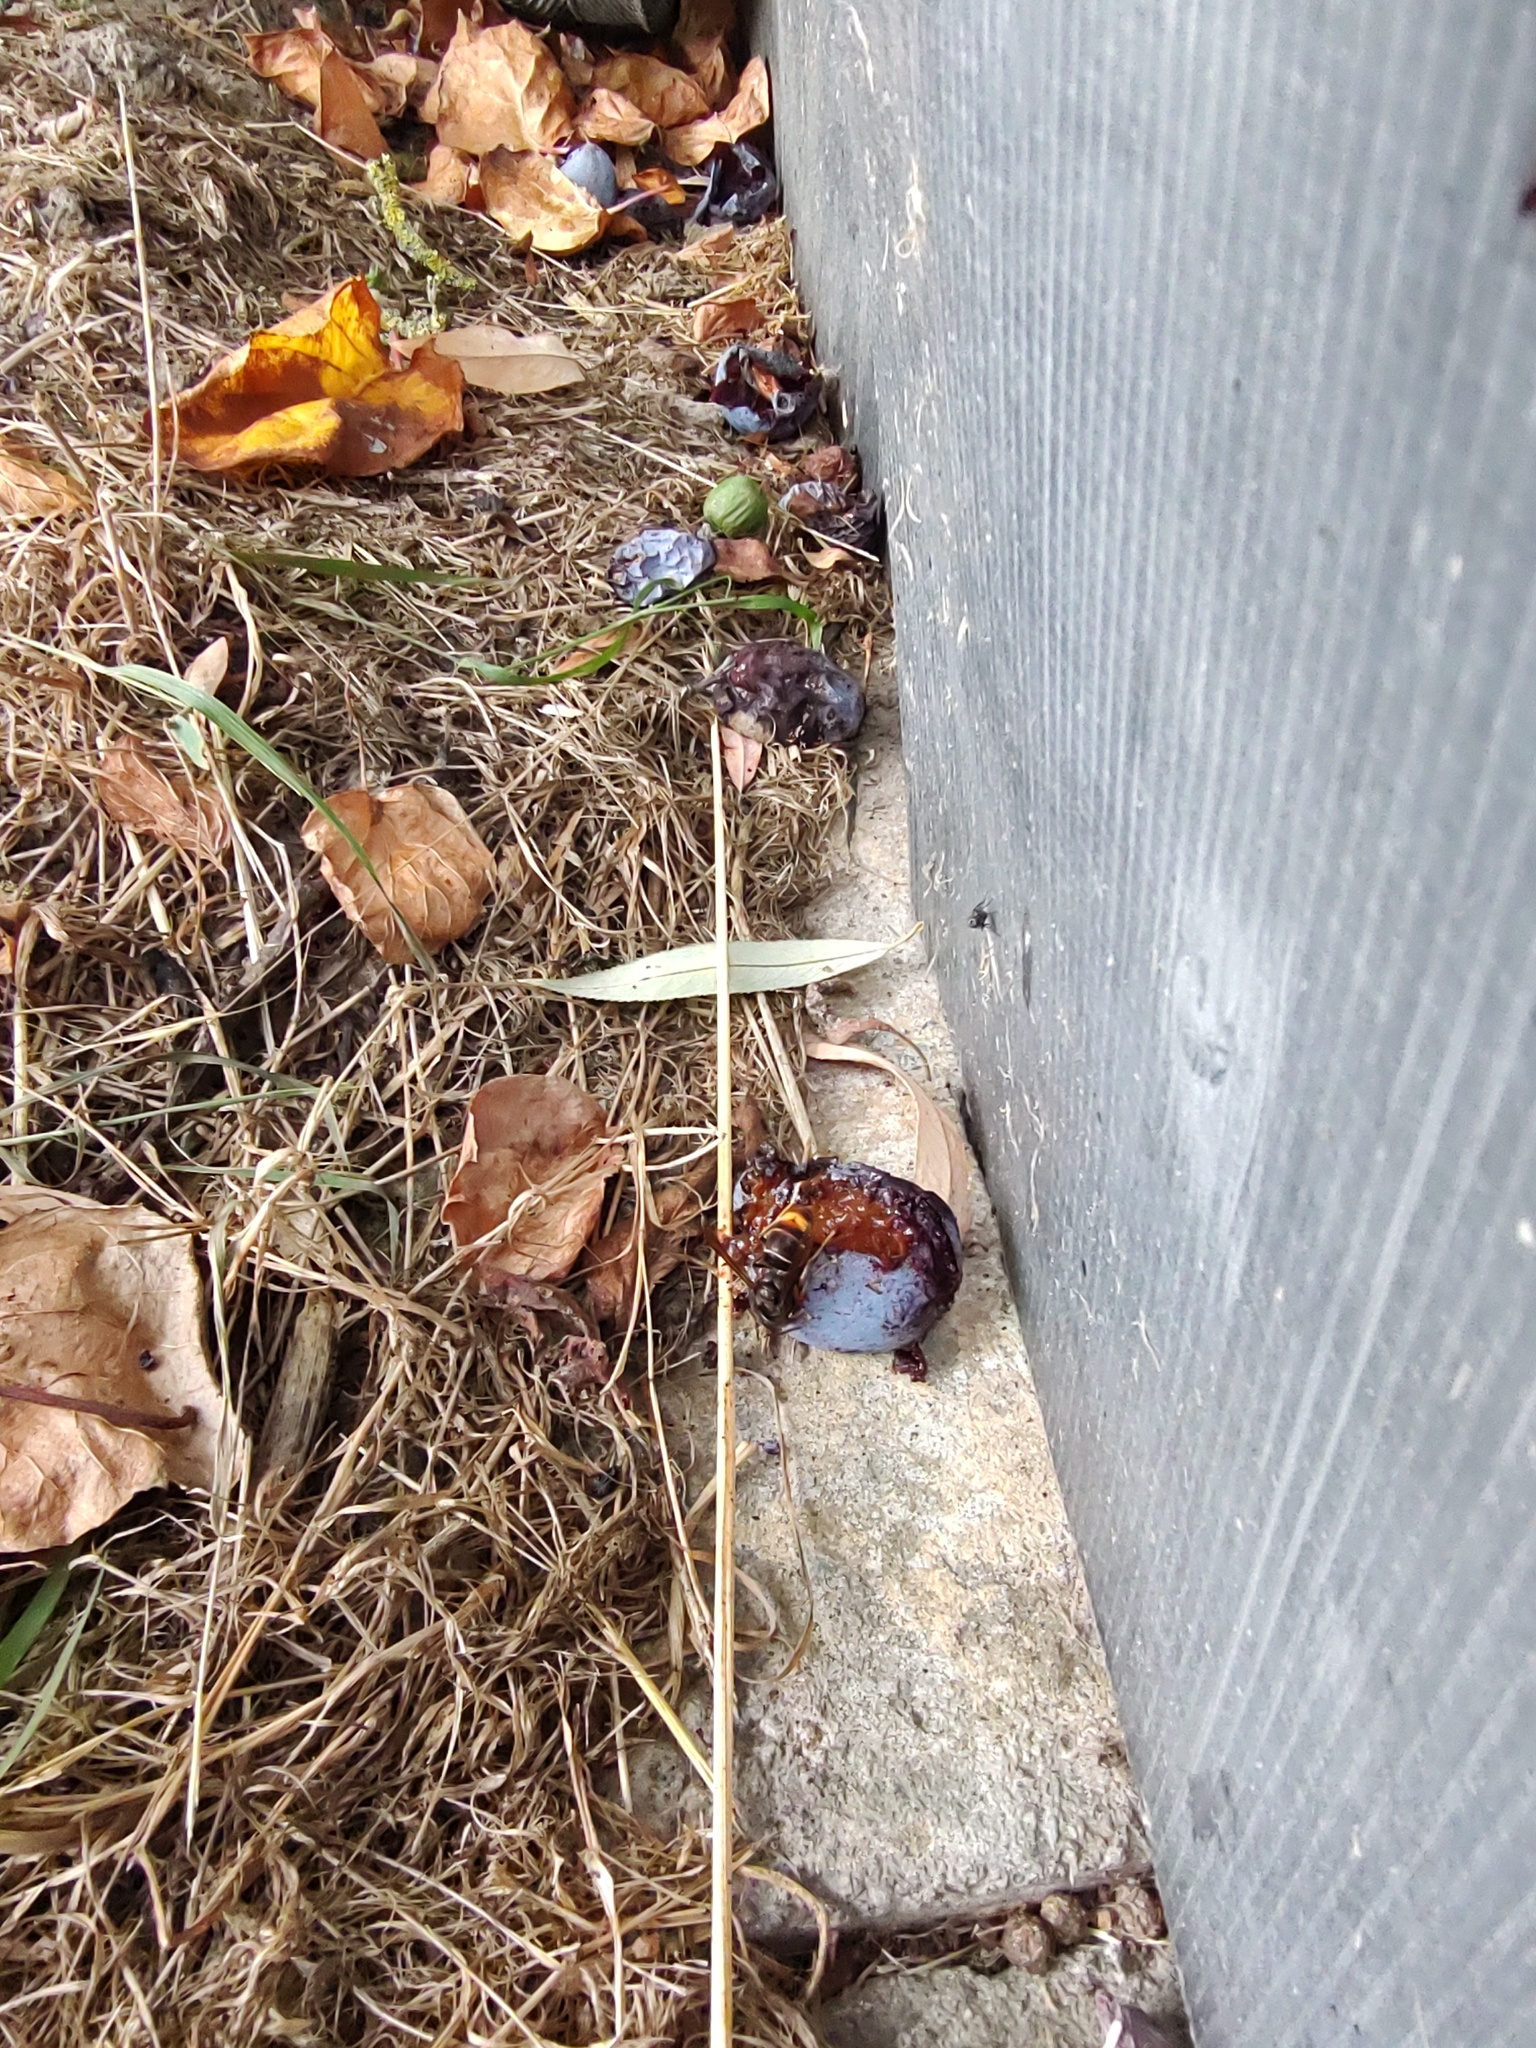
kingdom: Animalia
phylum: Arthropoda
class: Insecta
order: Hymenoptera
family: Vespidae
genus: Vespa
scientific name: Vespa velutina
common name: Asian hornet
